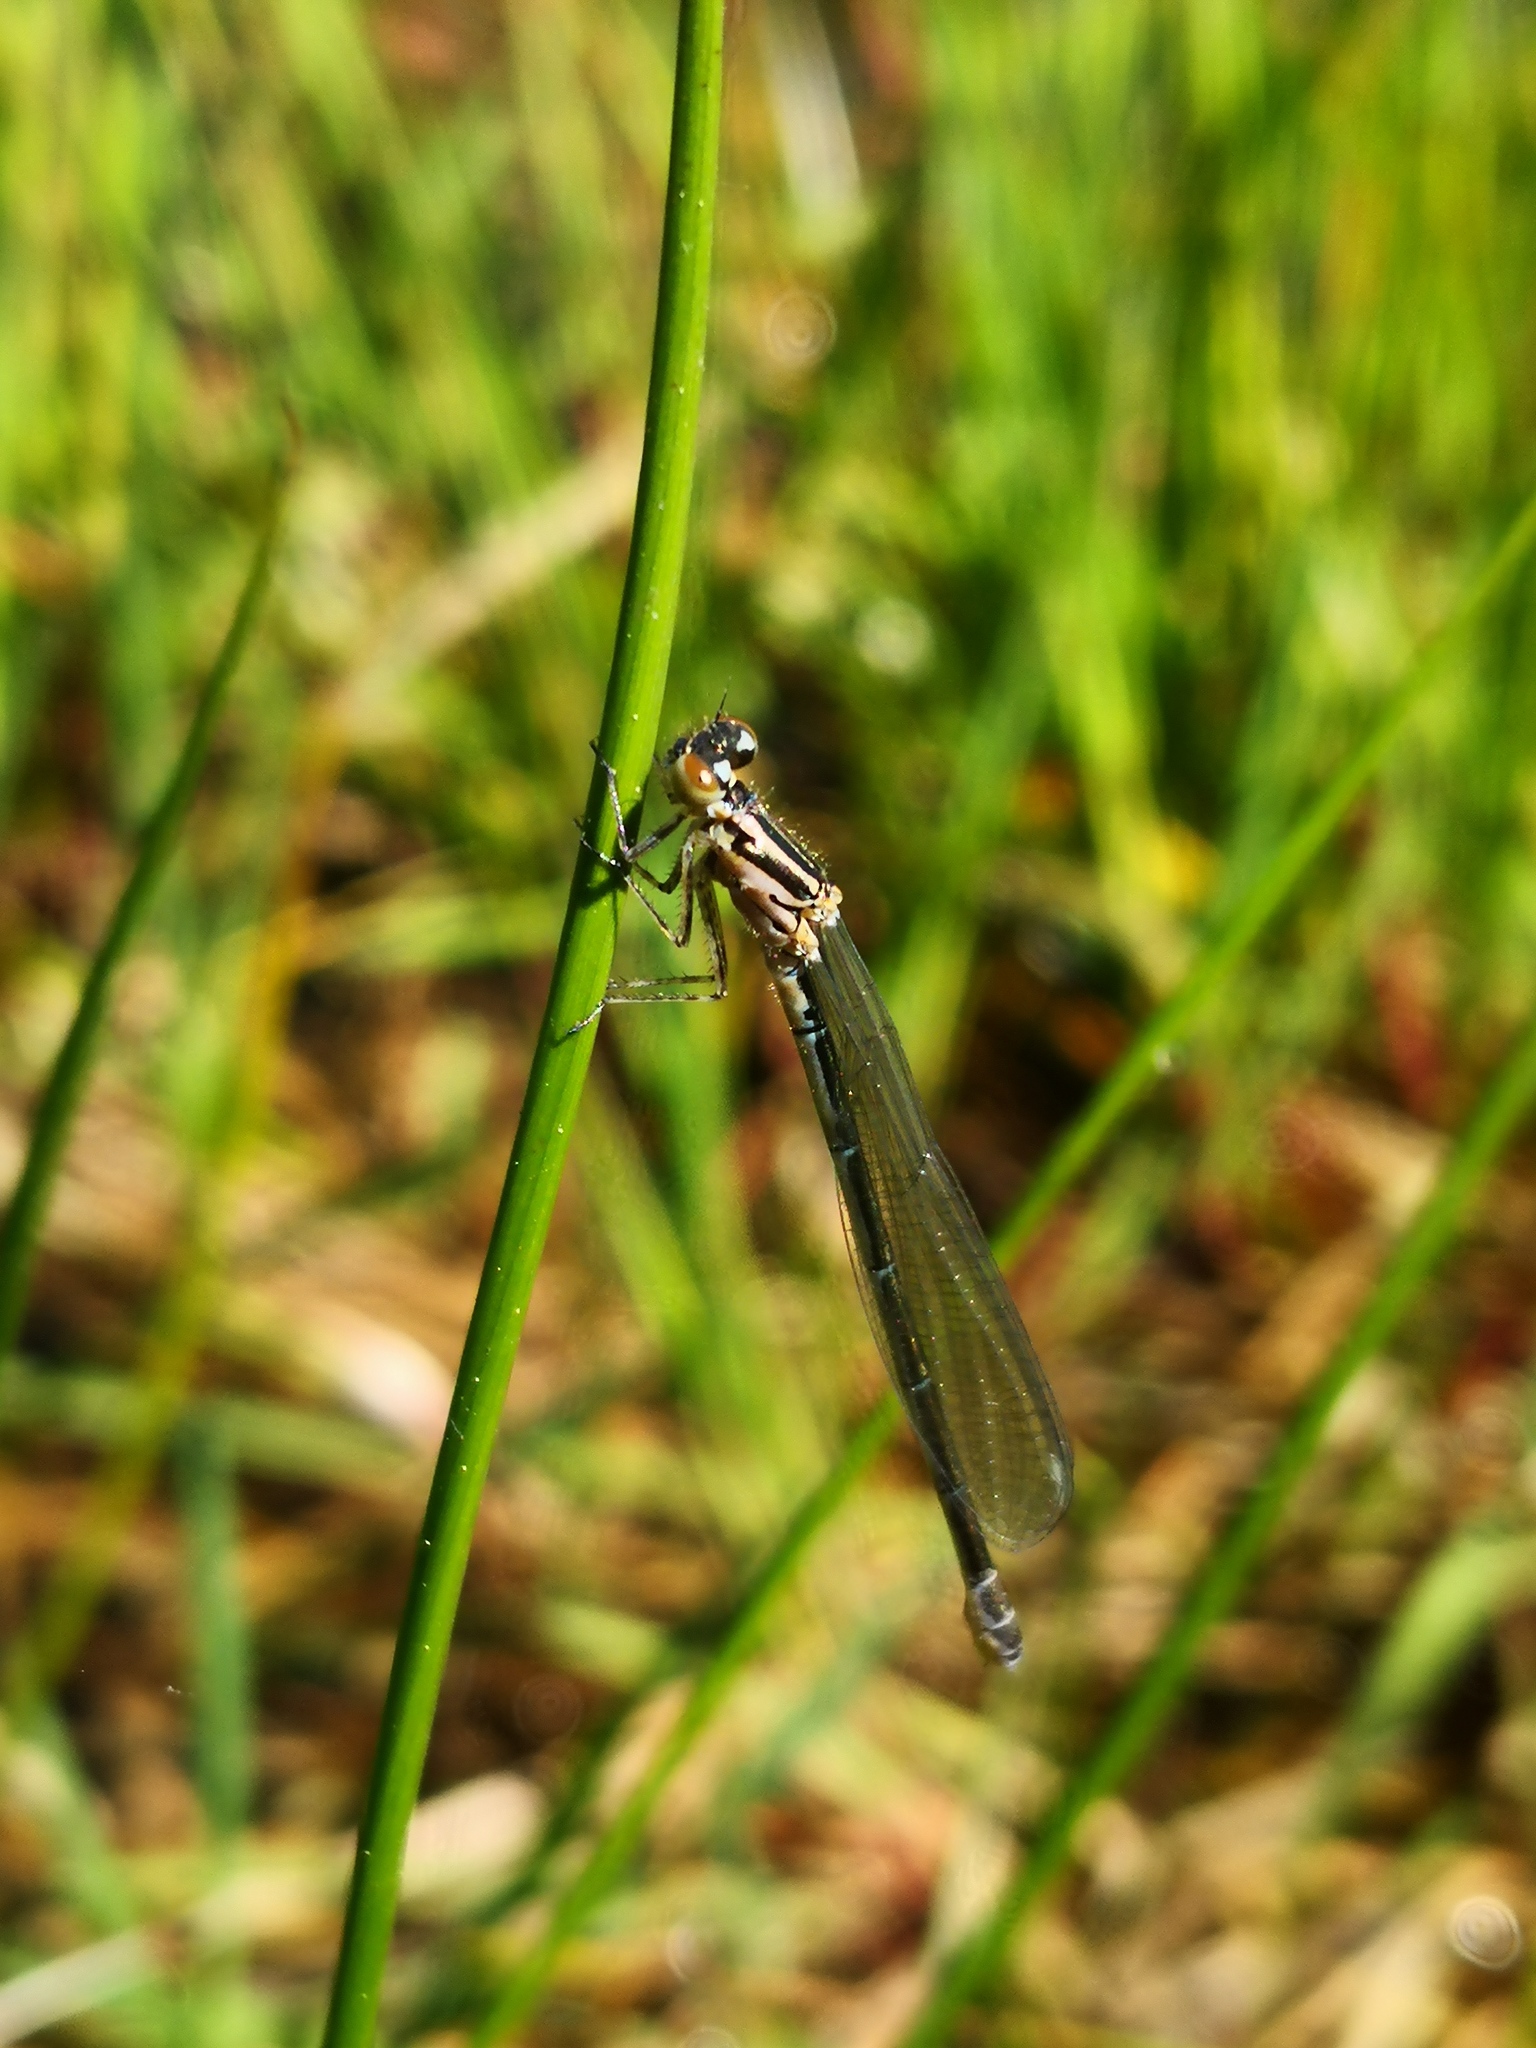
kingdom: Animalia
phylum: Arthropoda
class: Insecta
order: Odonata
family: Coenagrionidae
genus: Coenagrion
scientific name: Coenagrion puella
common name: Azure damselfly
